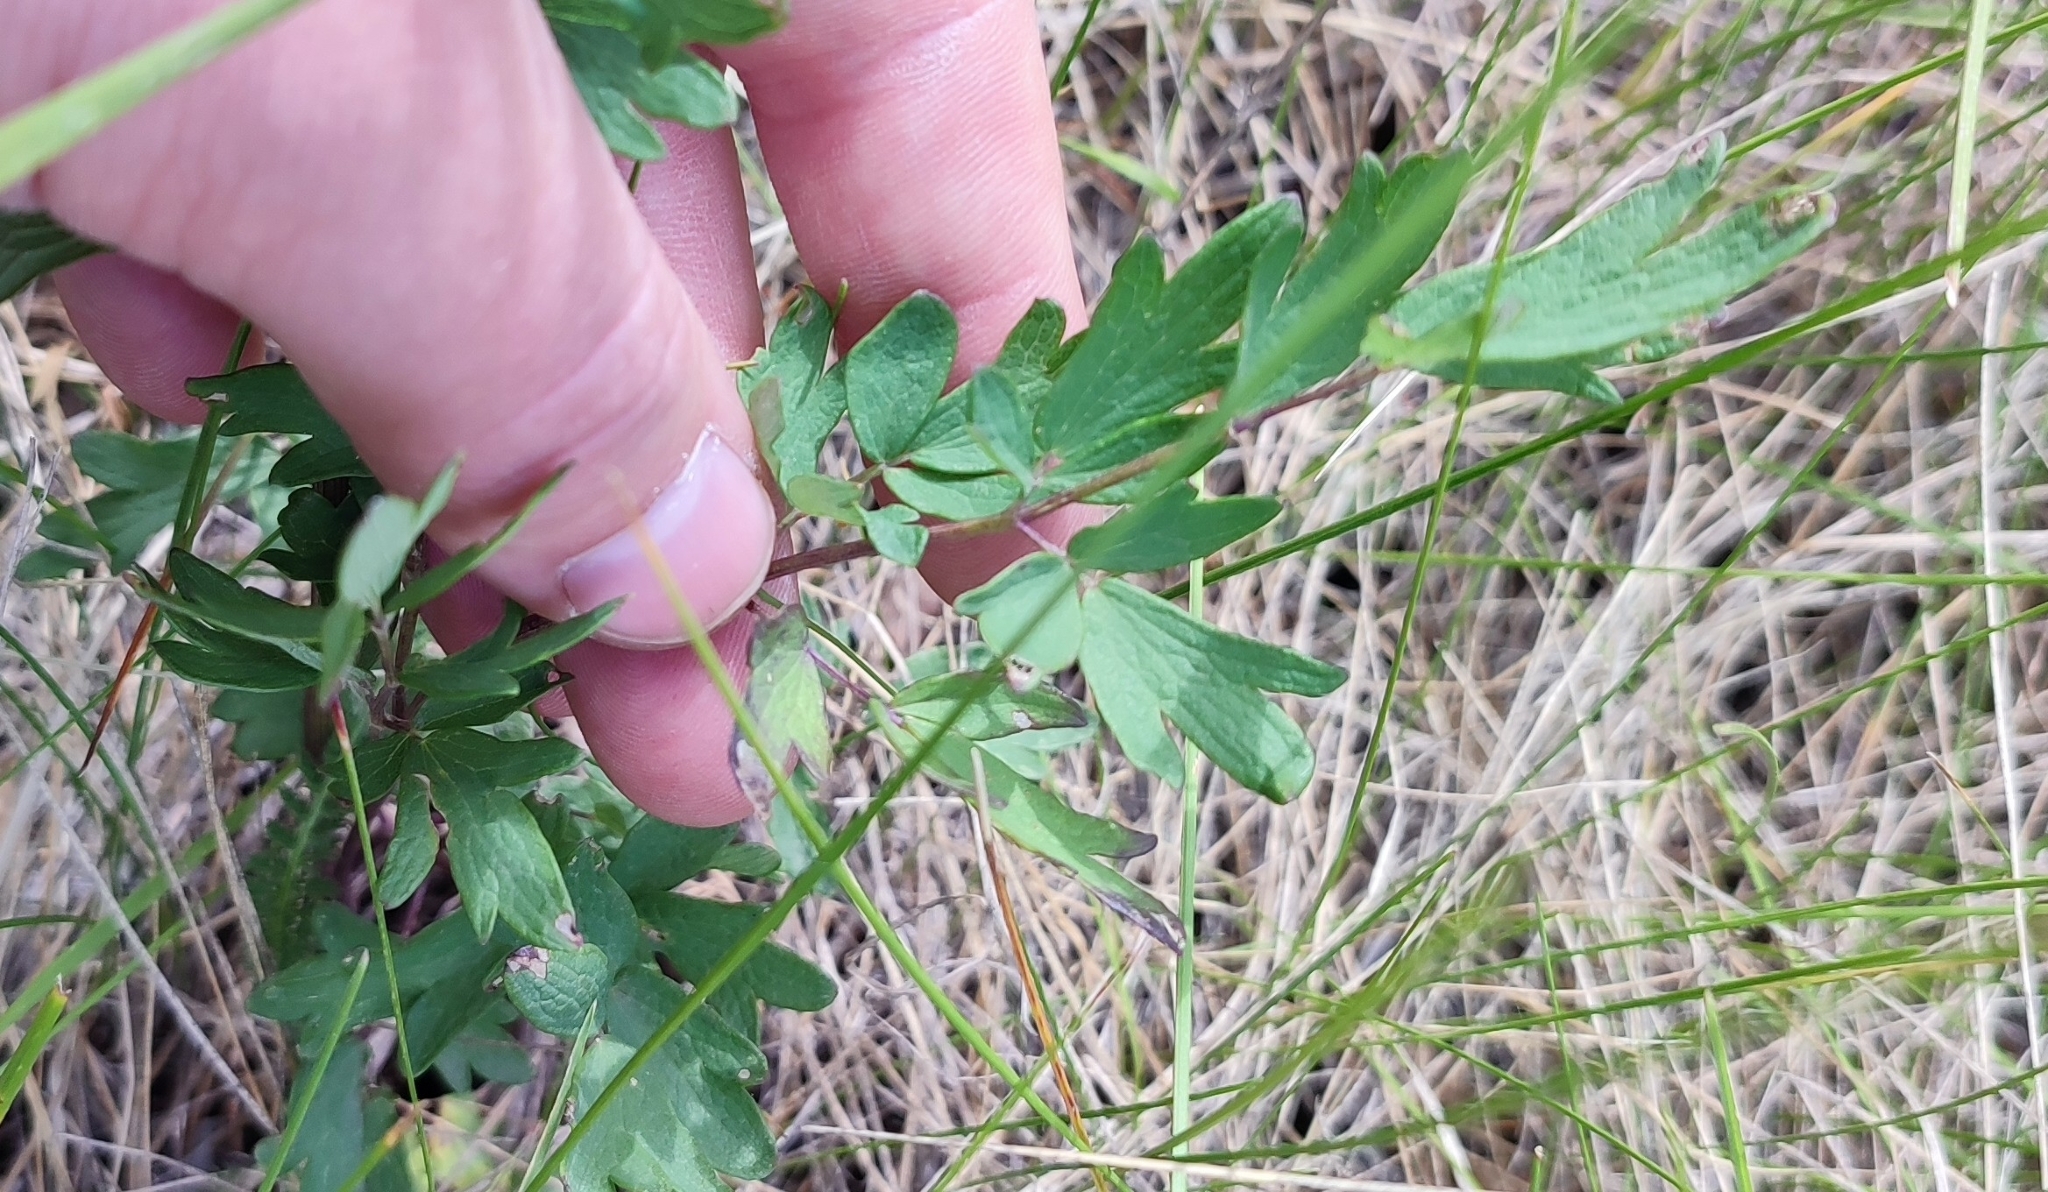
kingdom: Plantae
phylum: Tracheophyta
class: Magnoliopsida
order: Ranunculales
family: Ranunculaceae
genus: Thalictrum
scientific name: Thalictrum simplex
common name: Small meadow-rue
